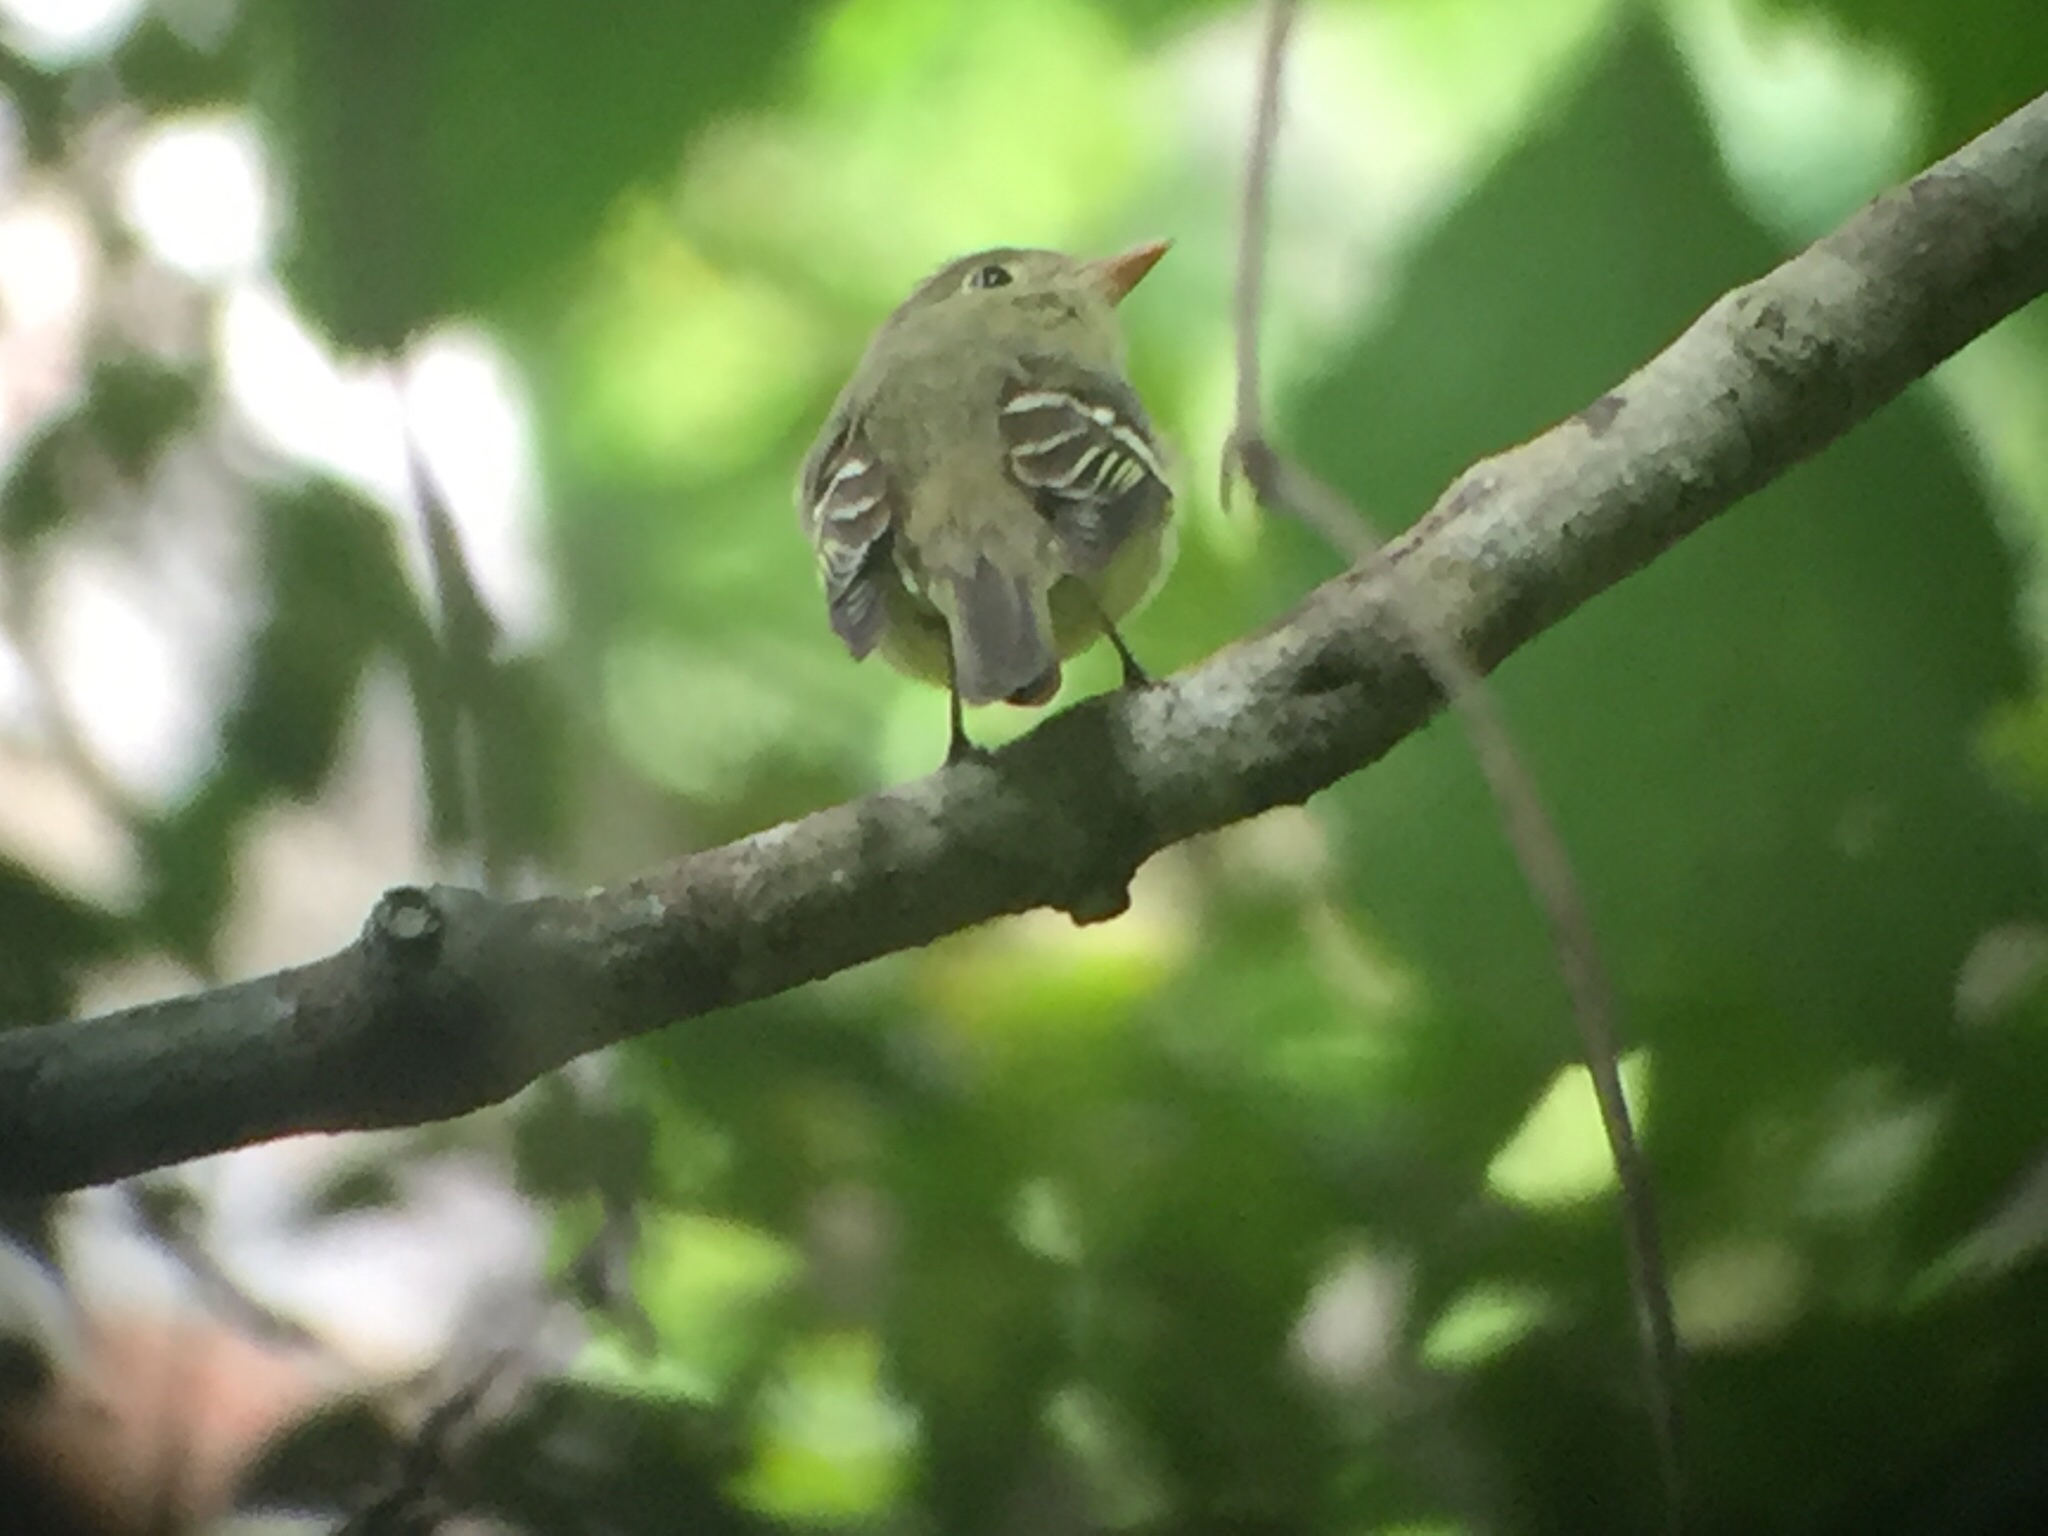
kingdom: Animalia
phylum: Chordata
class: Aves
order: Passeriformes
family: Tyrannidae
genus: Empidonax
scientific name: Empidonax flaviventris
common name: Yellow-bellied flycatcher
